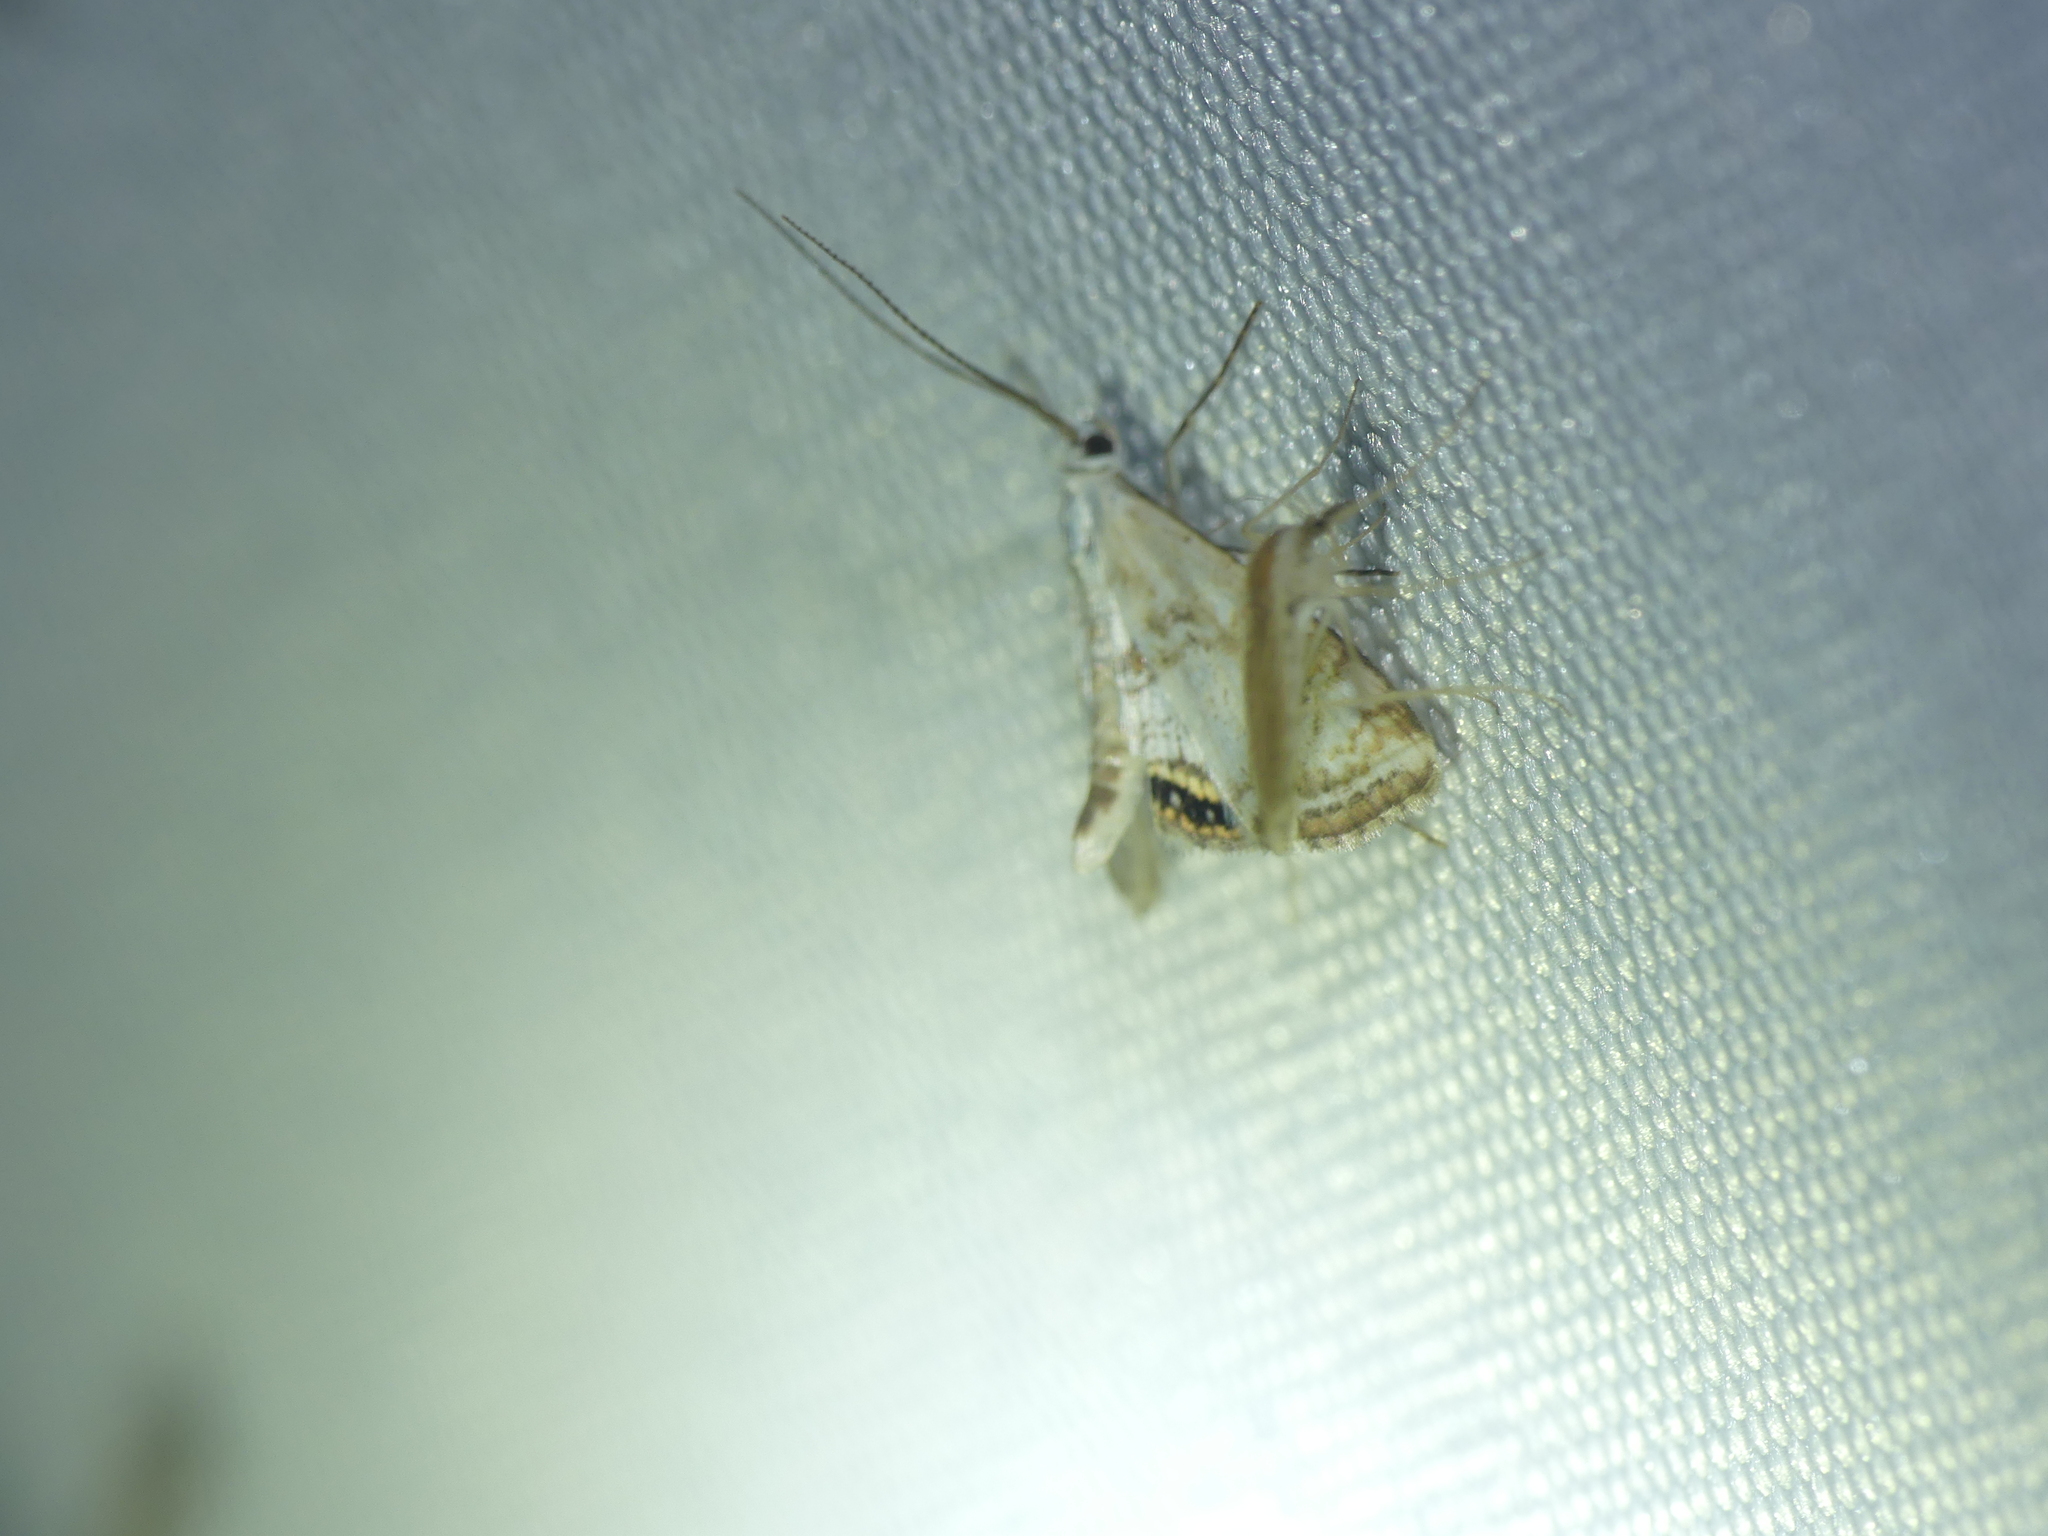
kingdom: Animalia
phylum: Arthropoda
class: Insecta
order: Lepidoptera
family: Crambidae
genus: Cataclysta
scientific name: Cataclysta lemnata
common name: Small china-mark
